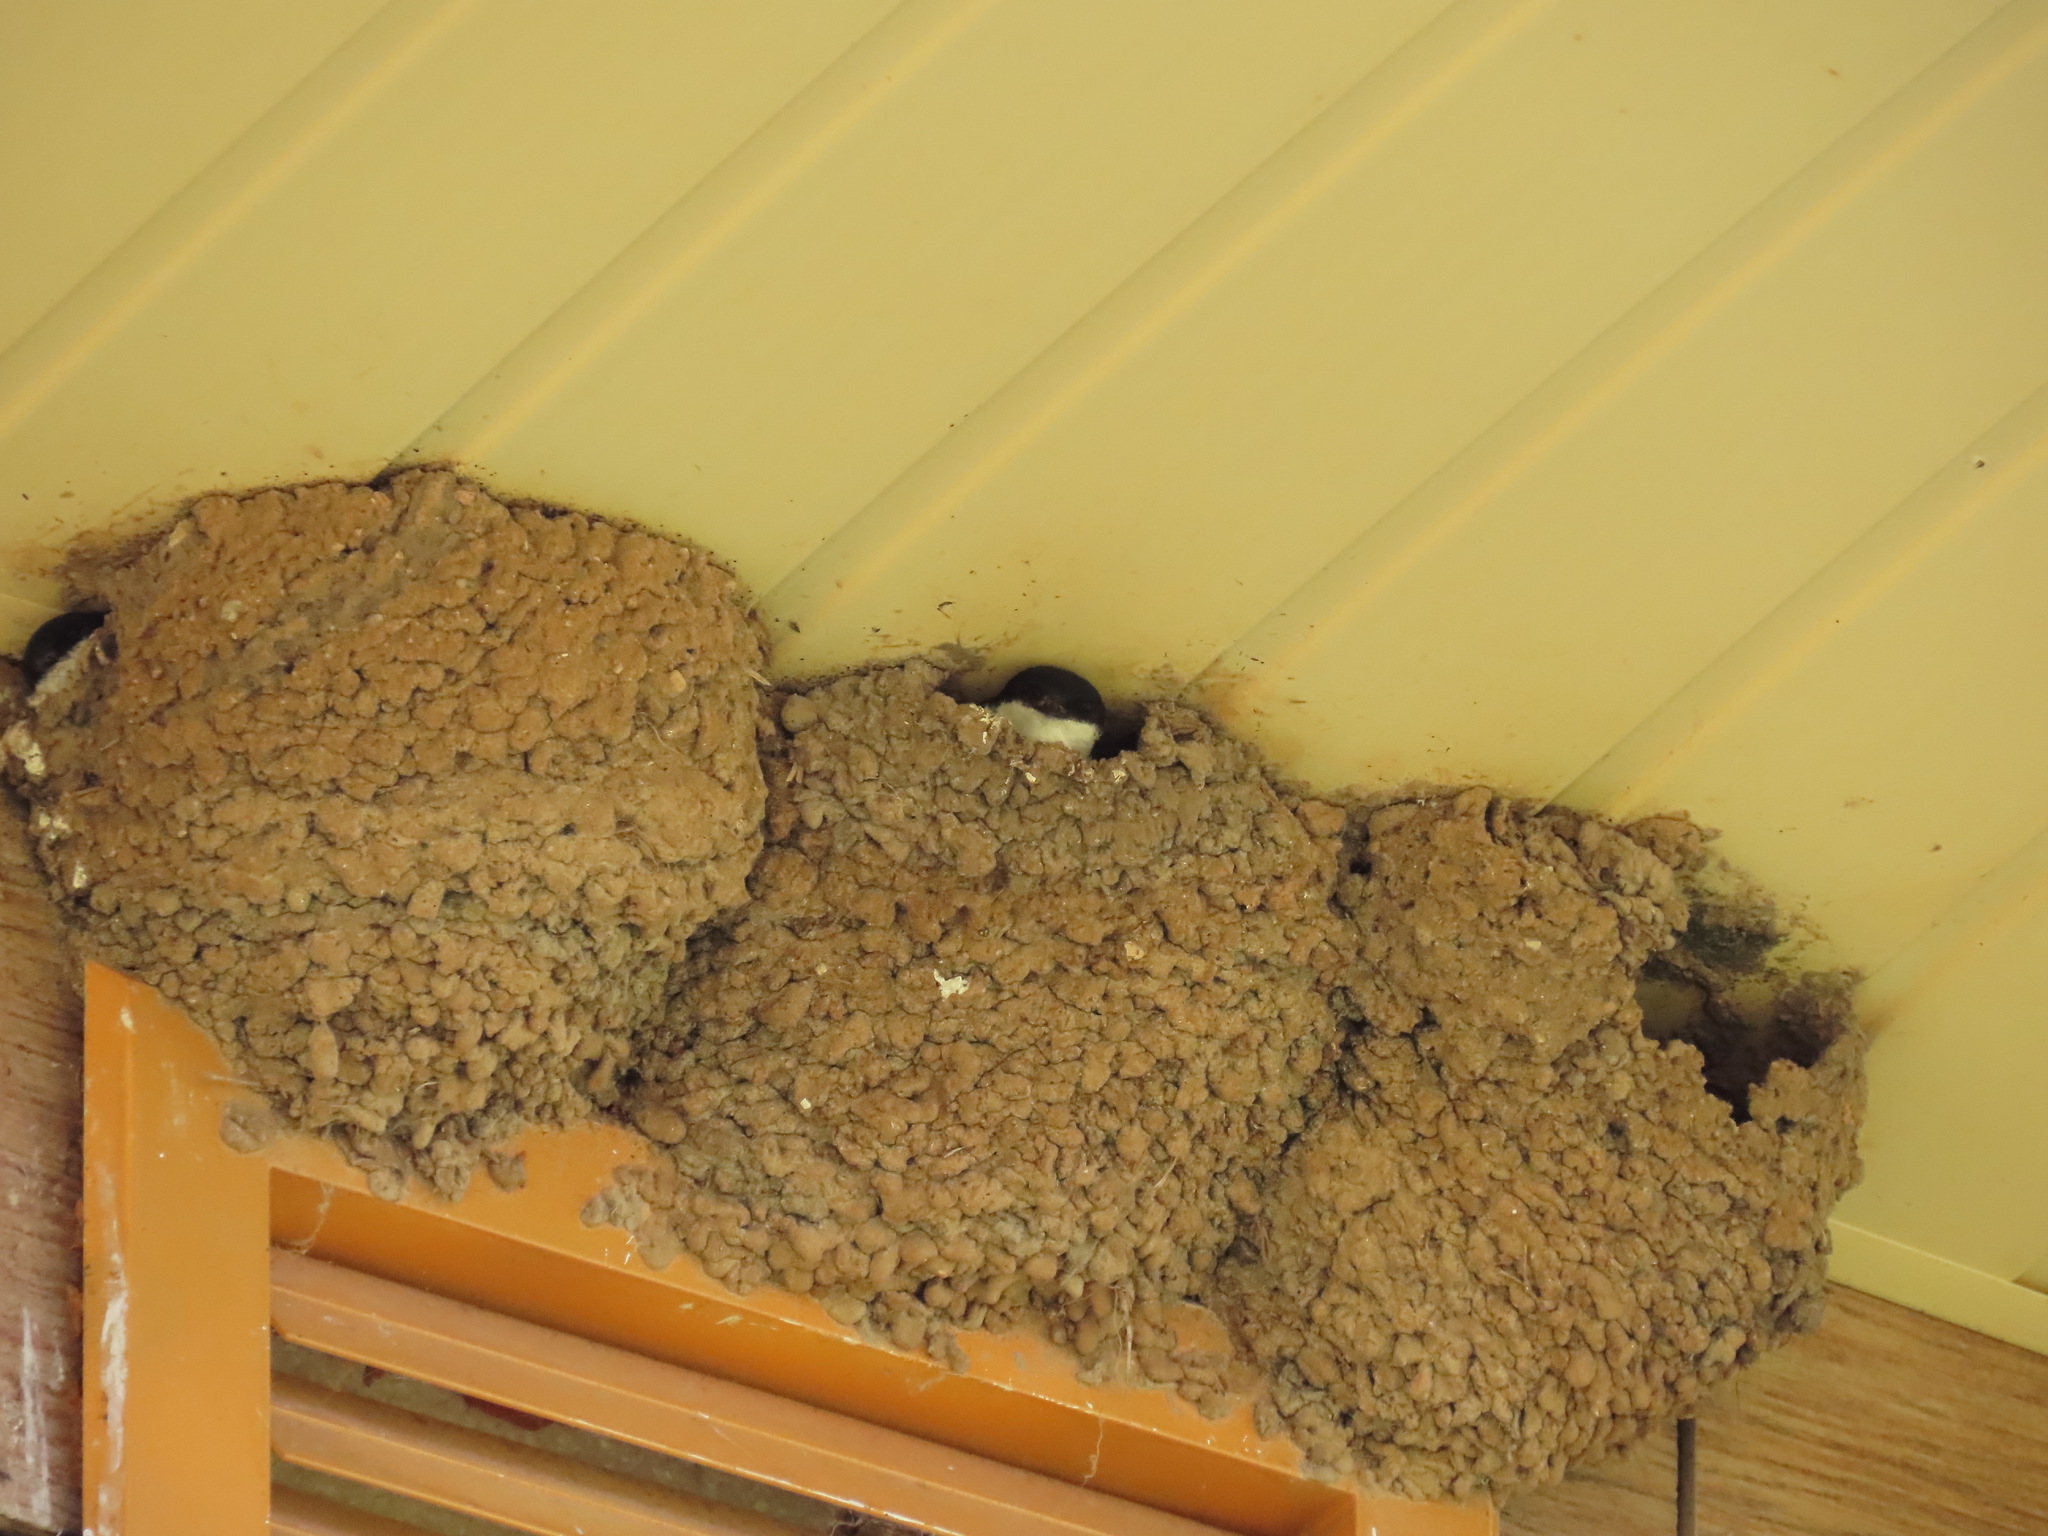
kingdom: Animalia
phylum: Chordata
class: Aves
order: Passeriformes
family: Hirundinidae
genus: Delichon
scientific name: Delichon urbicum
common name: Common house martin
